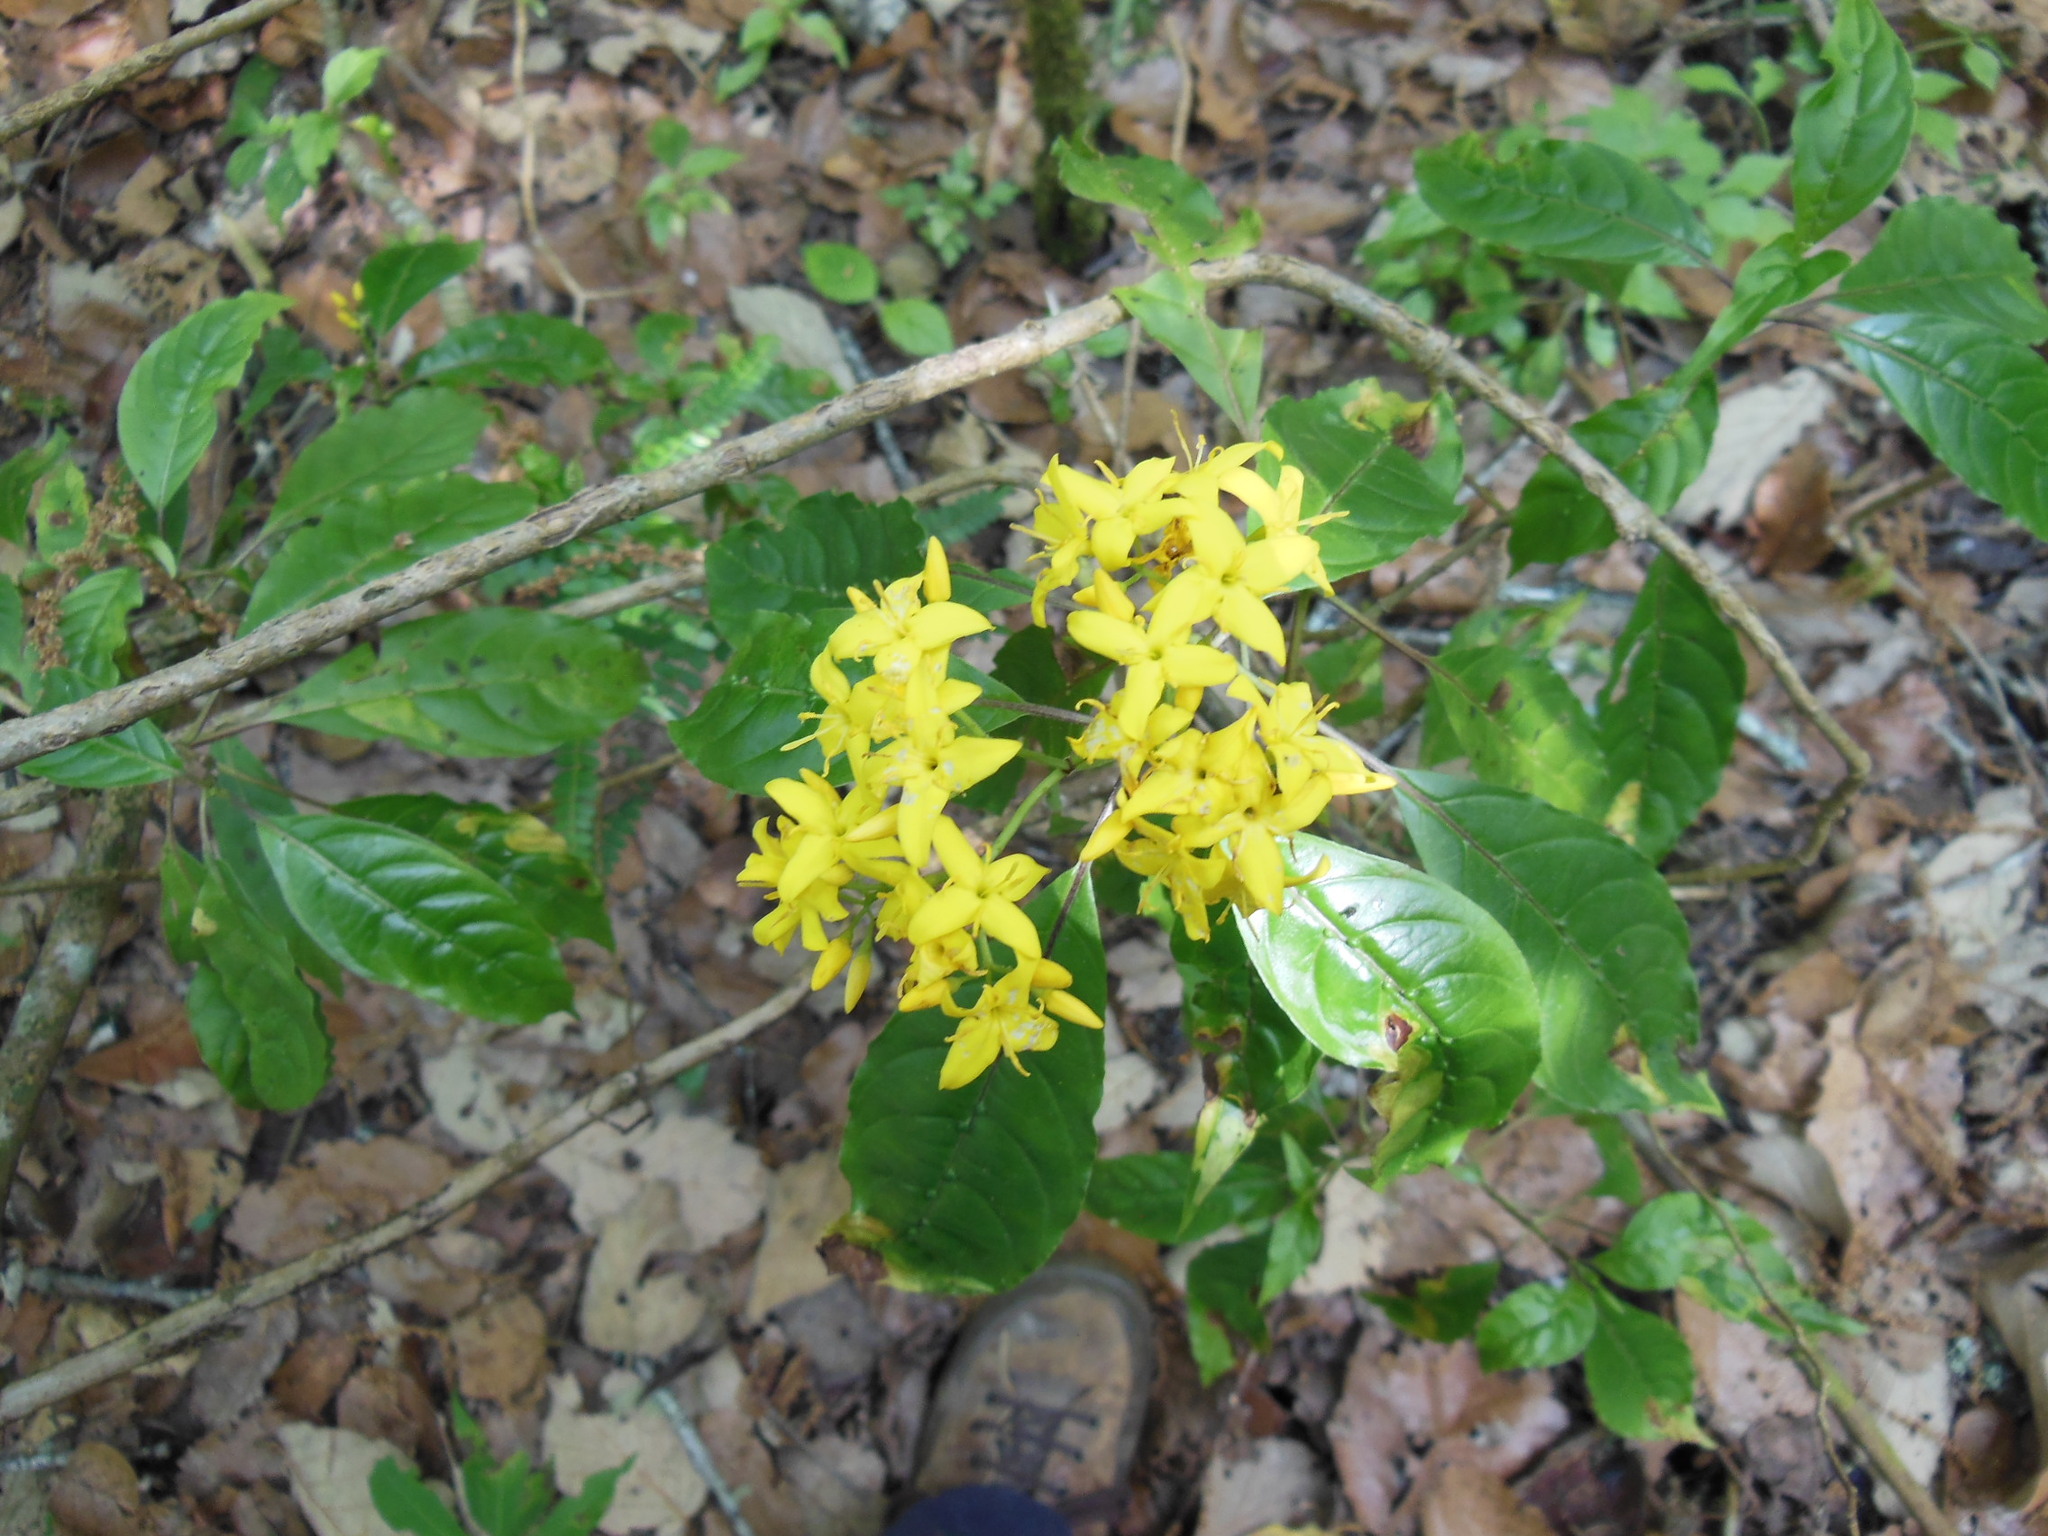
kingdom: Plantae
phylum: Tracheophyta
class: Magnoliopsida
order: Gentianales
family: Rubiaceae
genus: Deppea
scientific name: Deppea grandiflora
